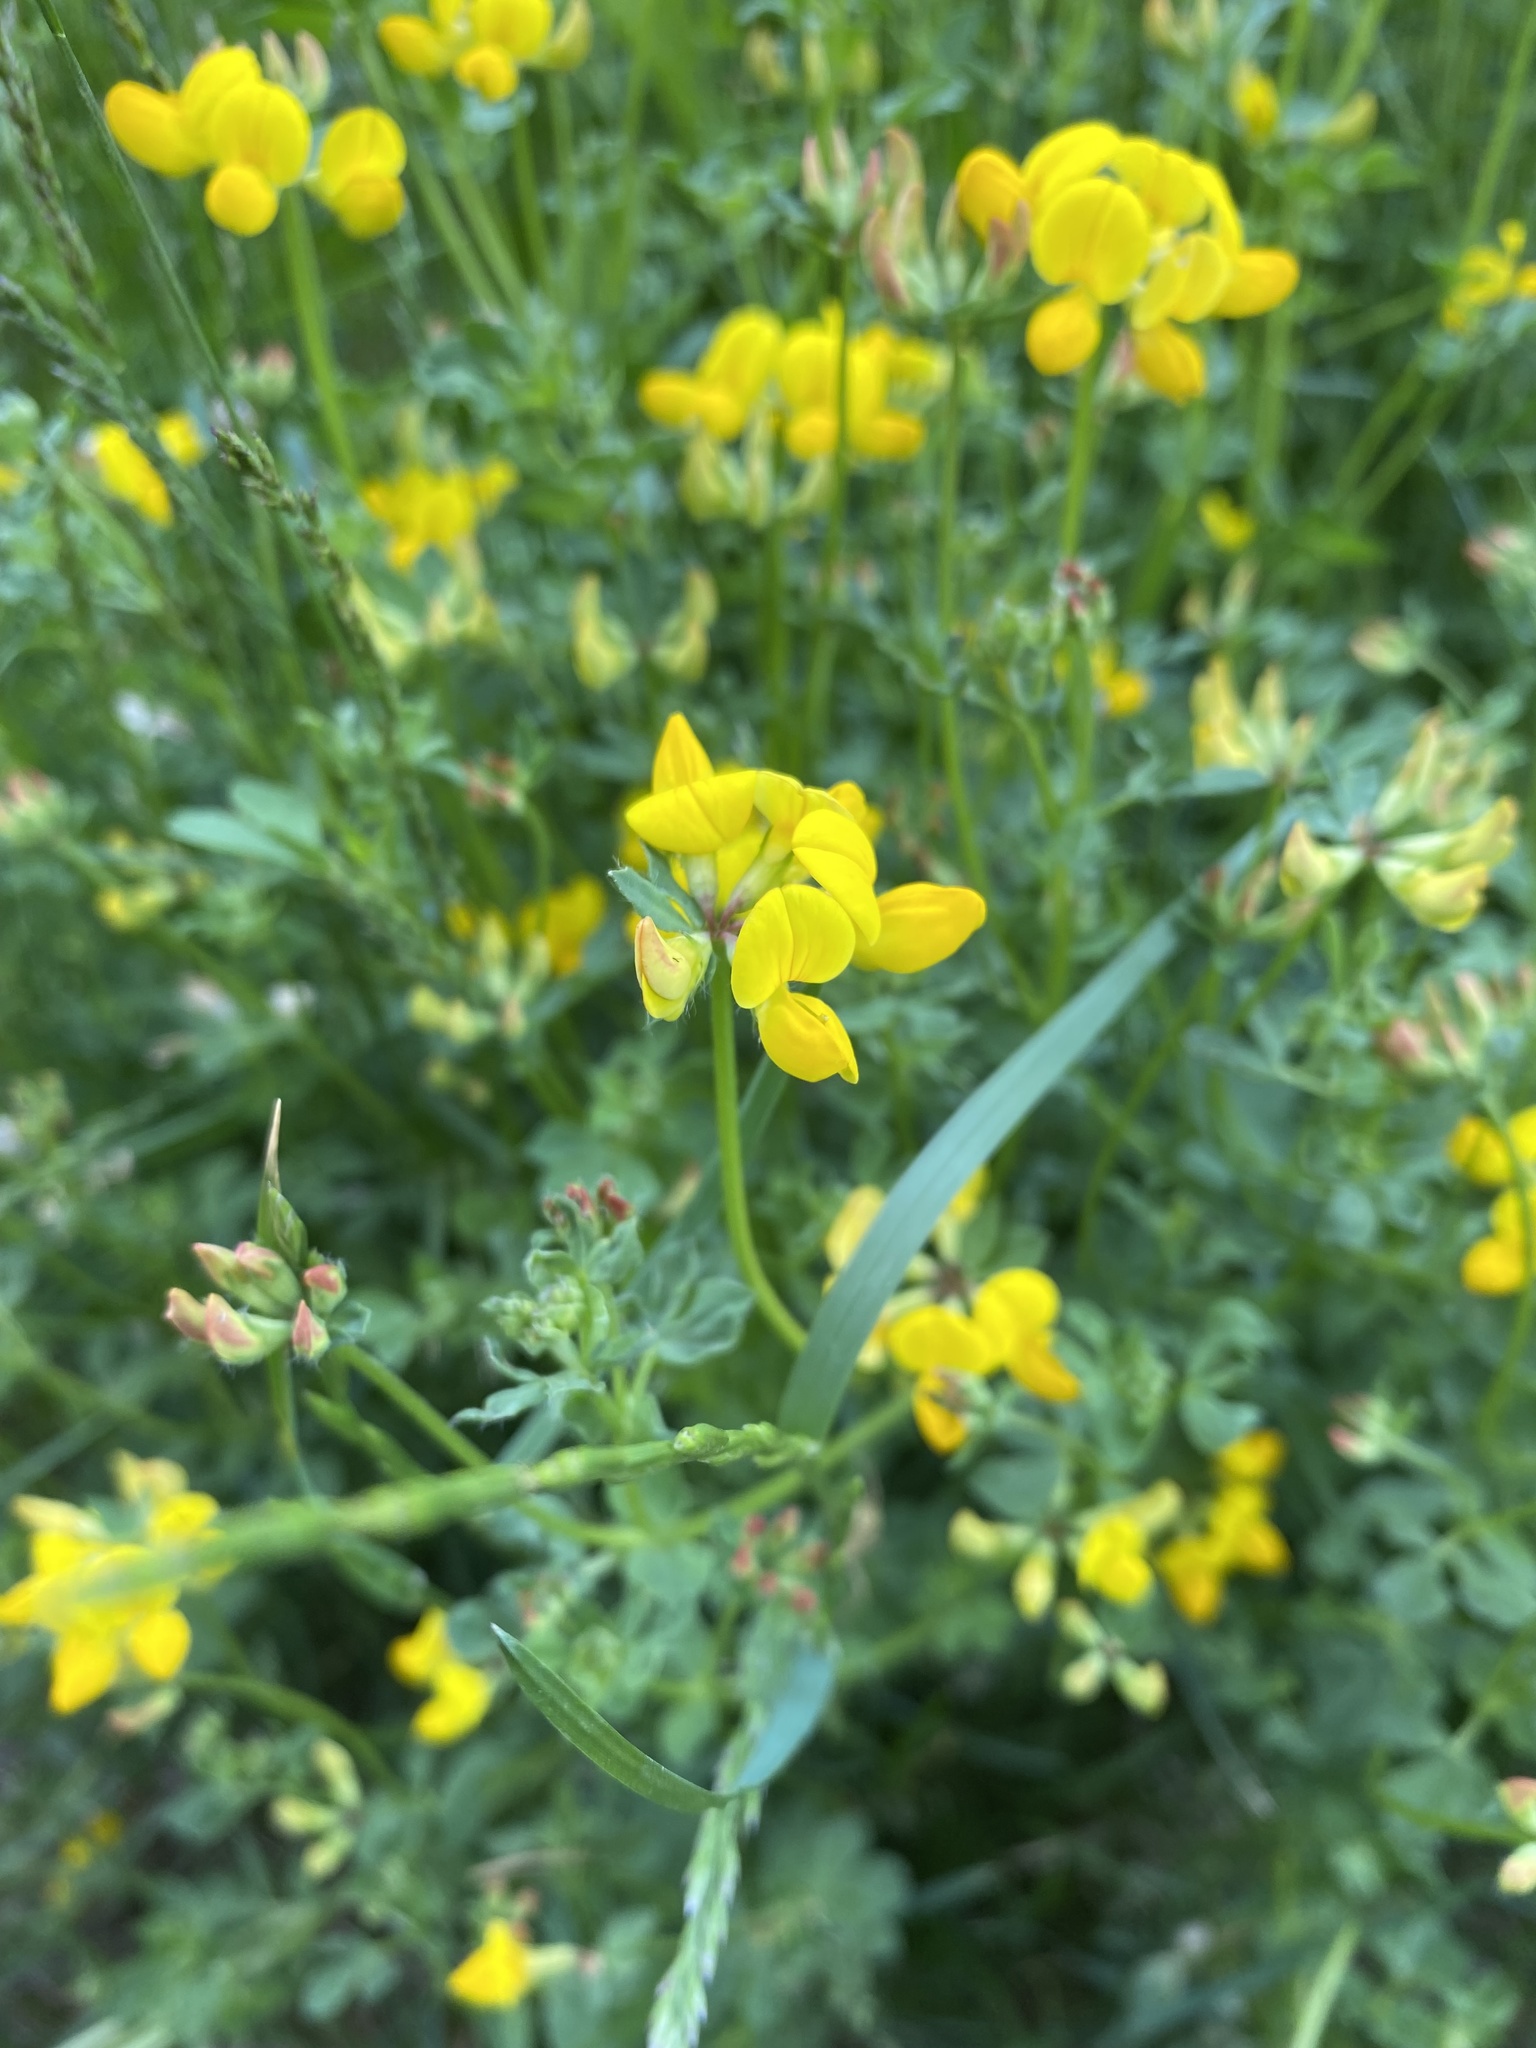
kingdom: Plantae
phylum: Tracheophyta
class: Magnoliopsida
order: Fabales
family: Fabaceae
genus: Lotus
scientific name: Lotus corniculatus
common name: Common bird's-foot-trefoil
